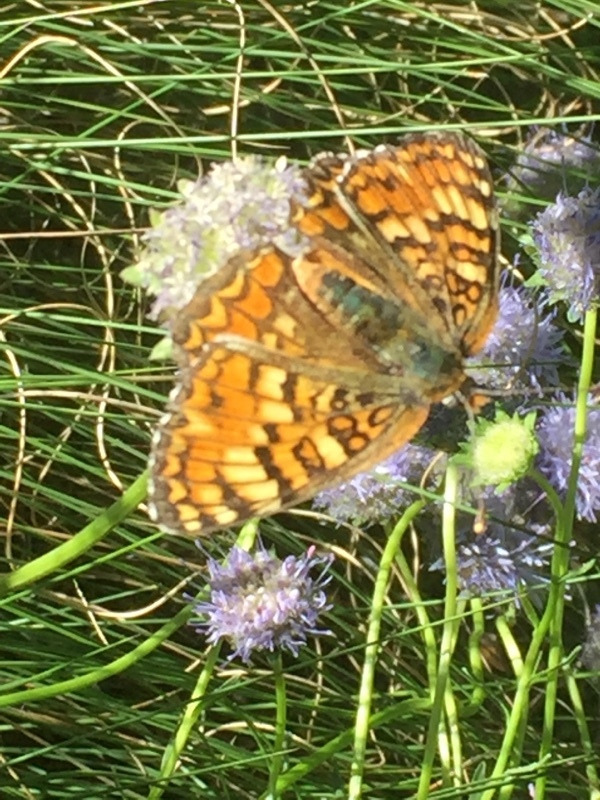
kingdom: Animalia
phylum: Arthropoda
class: Insecta
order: Lepidoptera
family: Nymphalidae
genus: Melitaea
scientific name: Melitaea phoebe
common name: Knapweed fritillary
